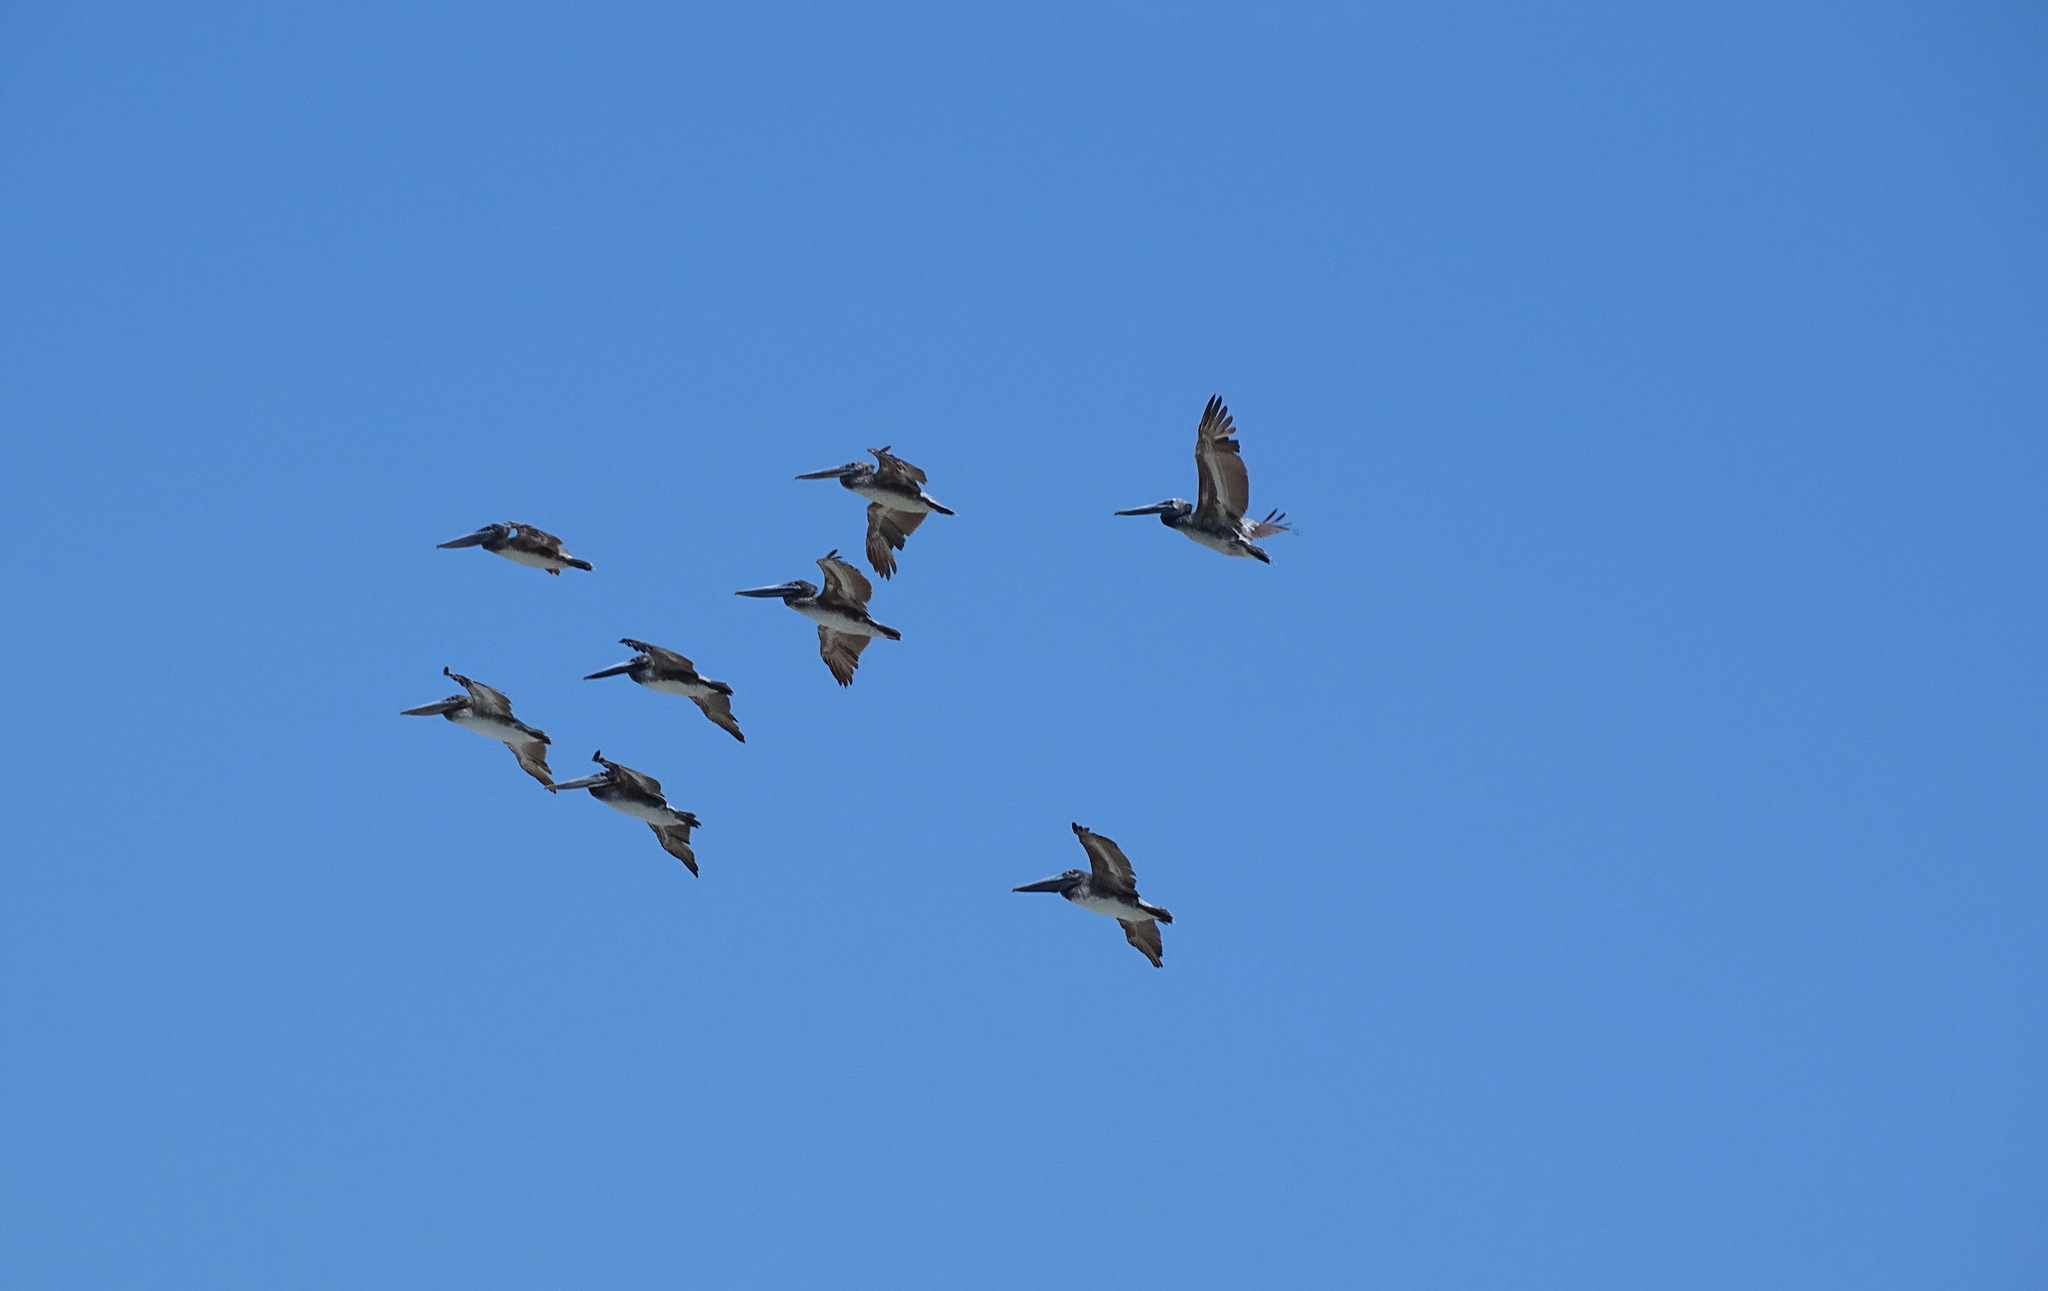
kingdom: Animalia
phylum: Chordata
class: Aves
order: Pelecaniformes
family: Pelecanidae
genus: Pelecanus
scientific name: Pelecanus occidentalis
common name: Brown pelican
